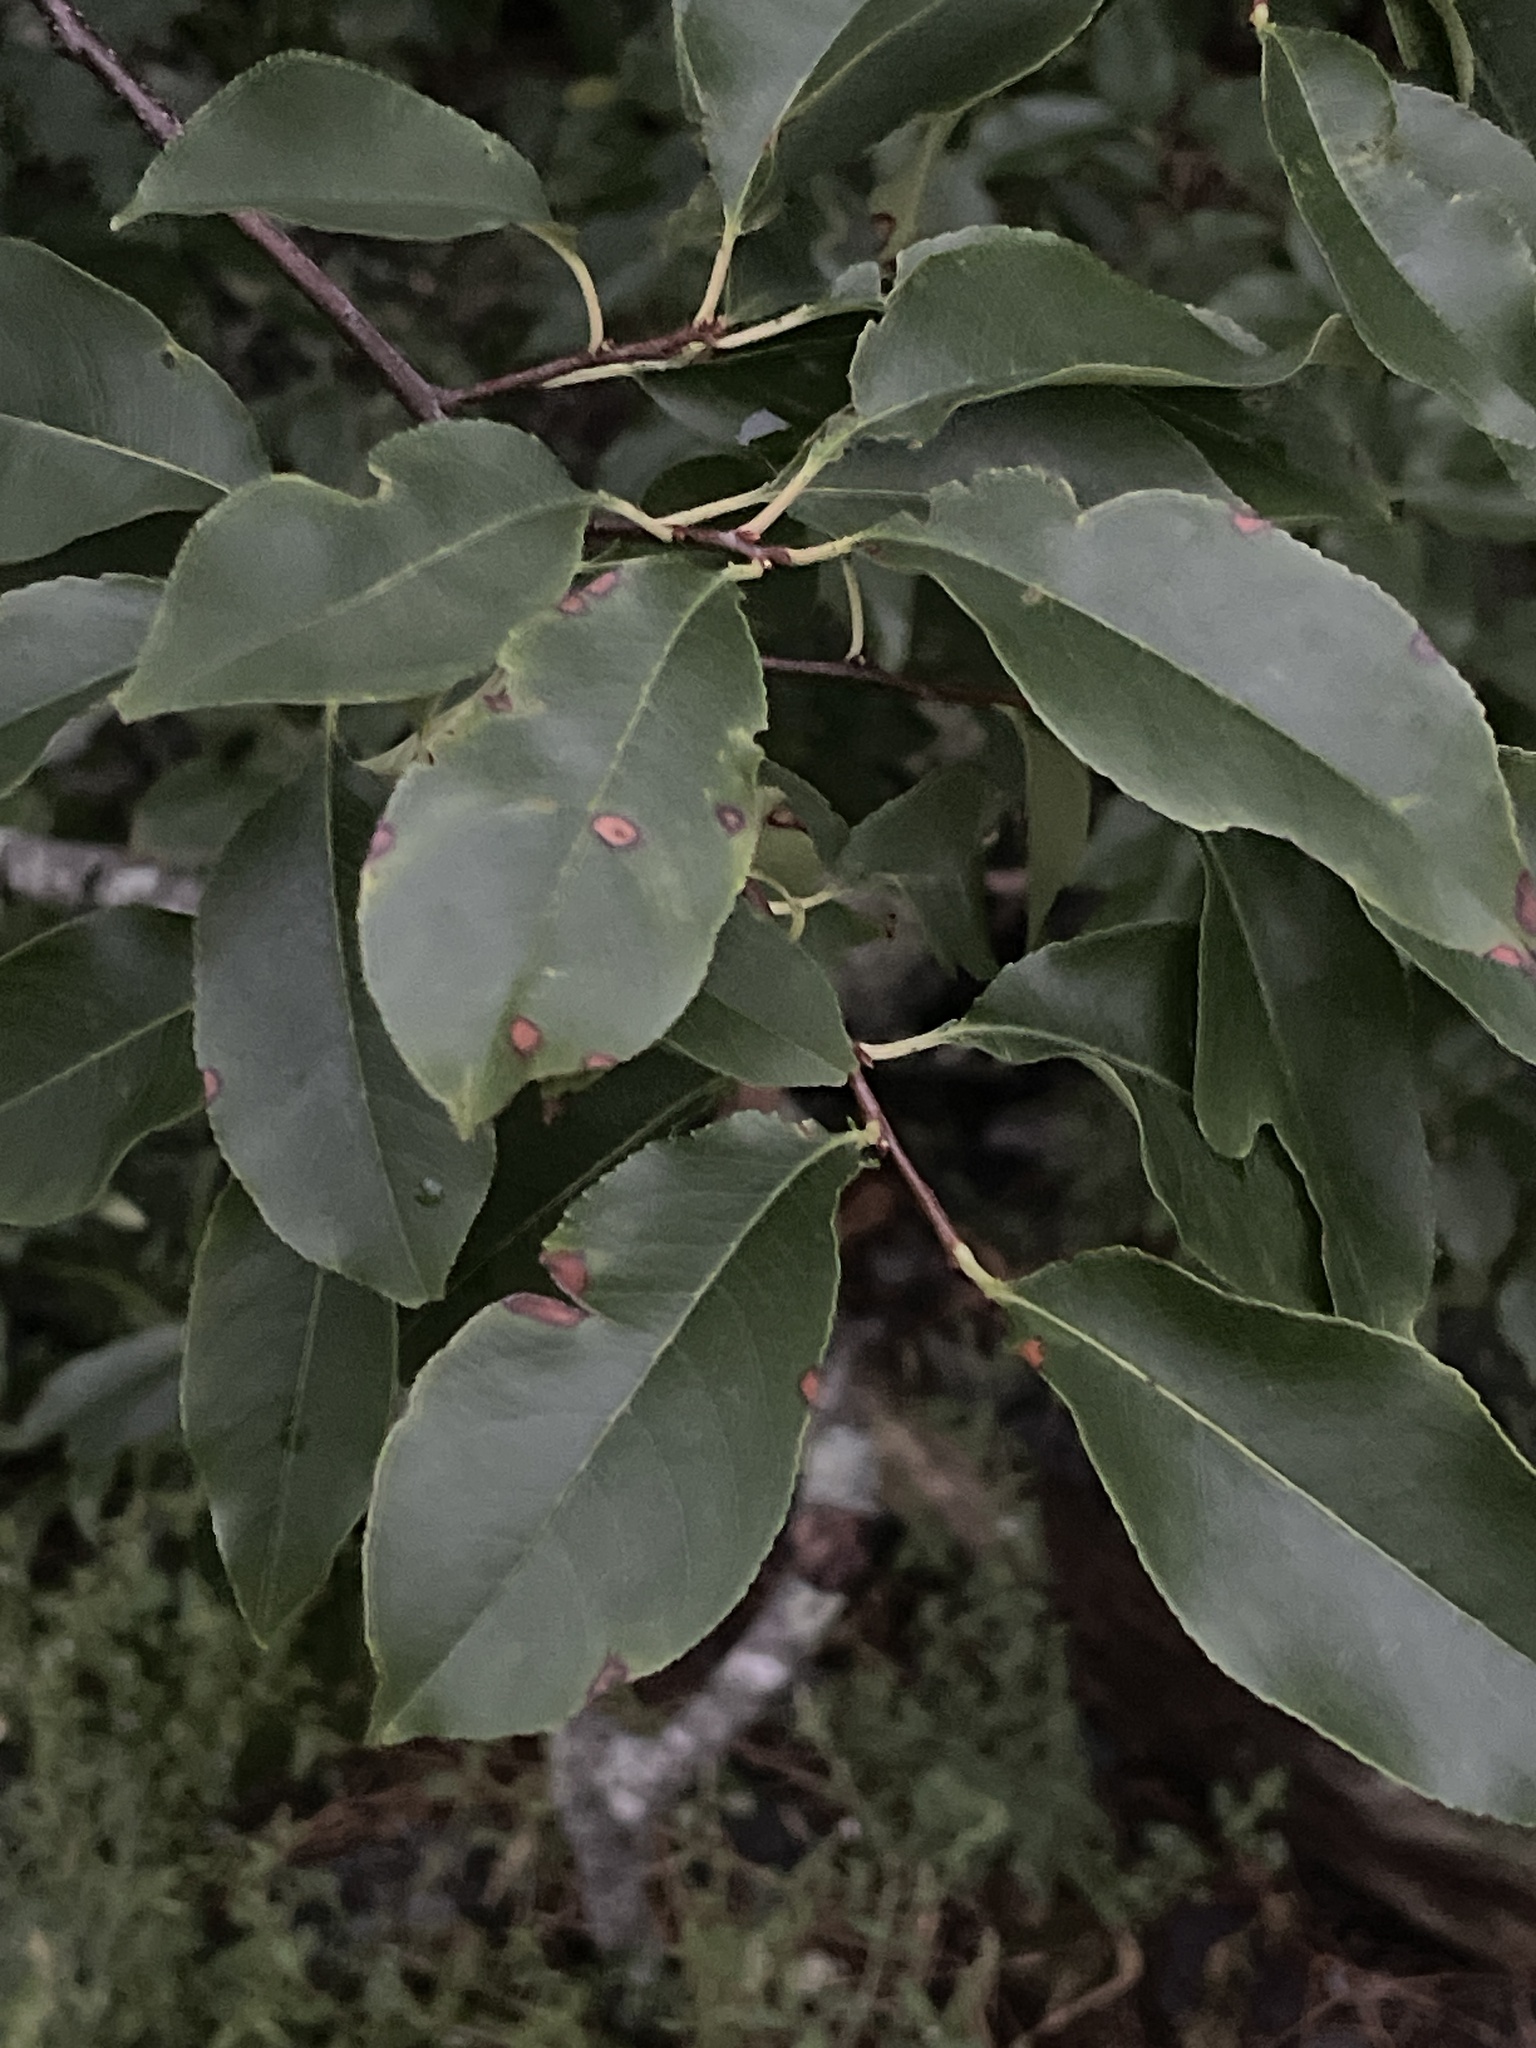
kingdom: Plantae
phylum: Tracheophyta
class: Magnoliopsida
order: Rosales
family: Rosaceae
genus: Prunus
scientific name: Prunus serotina
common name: Black cherry
